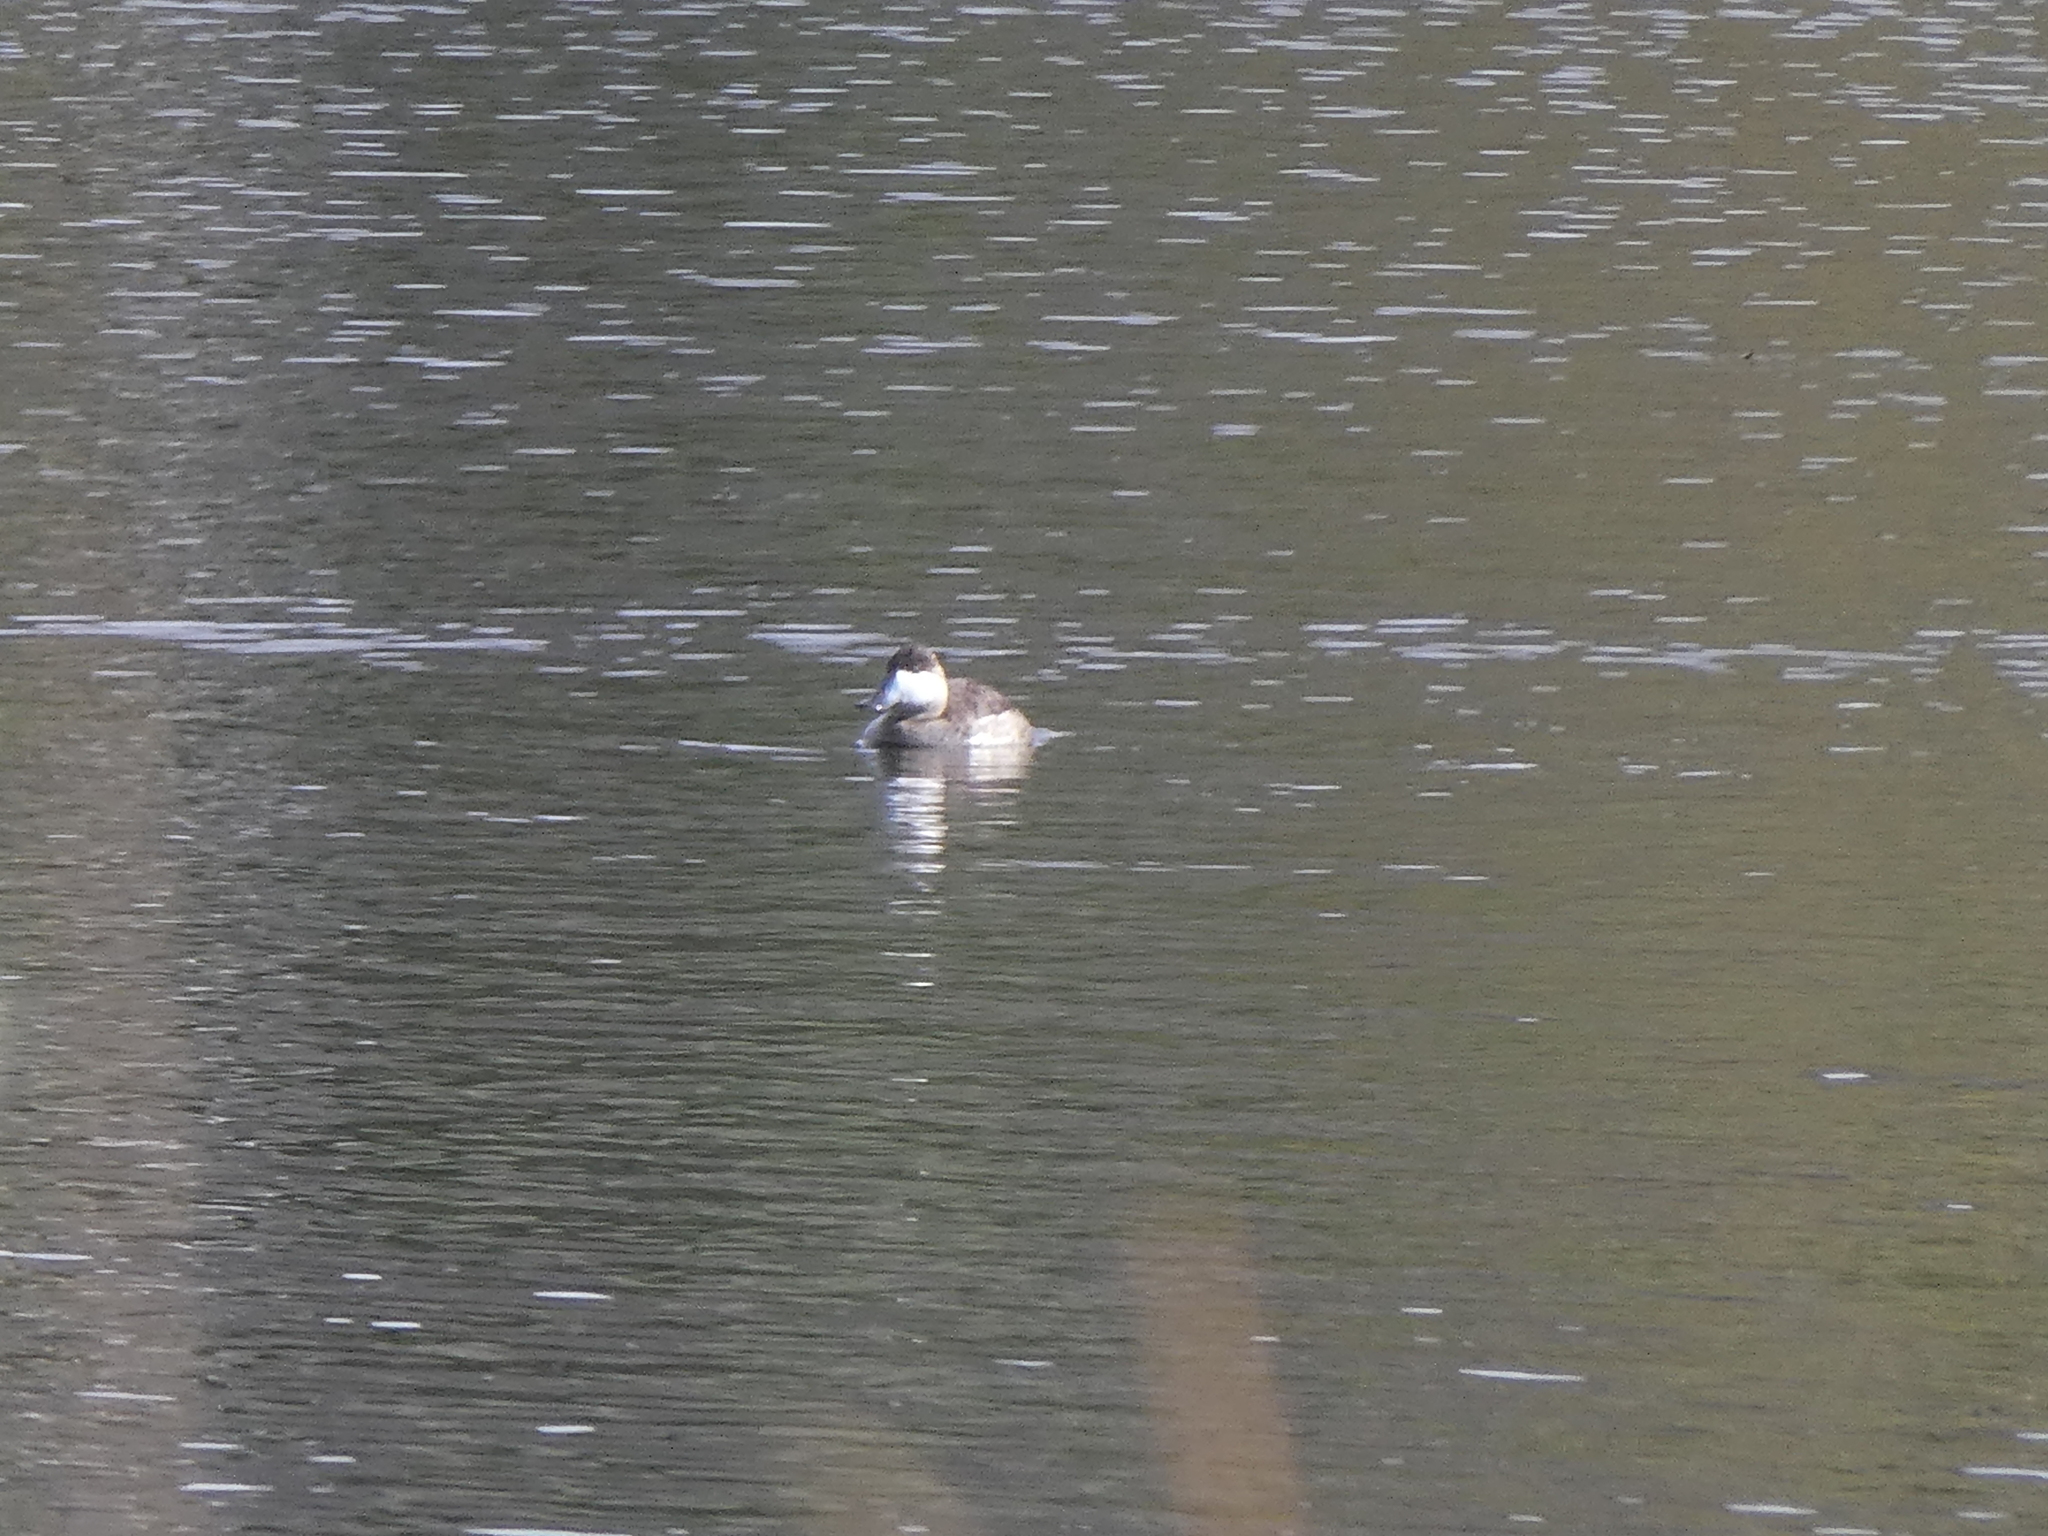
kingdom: Animalia
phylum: Chordata
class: Aves
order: Anseriformes
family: Anatidae
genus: Oxyura
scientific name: Oxyura jamaicensis
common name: Ruddy duck
